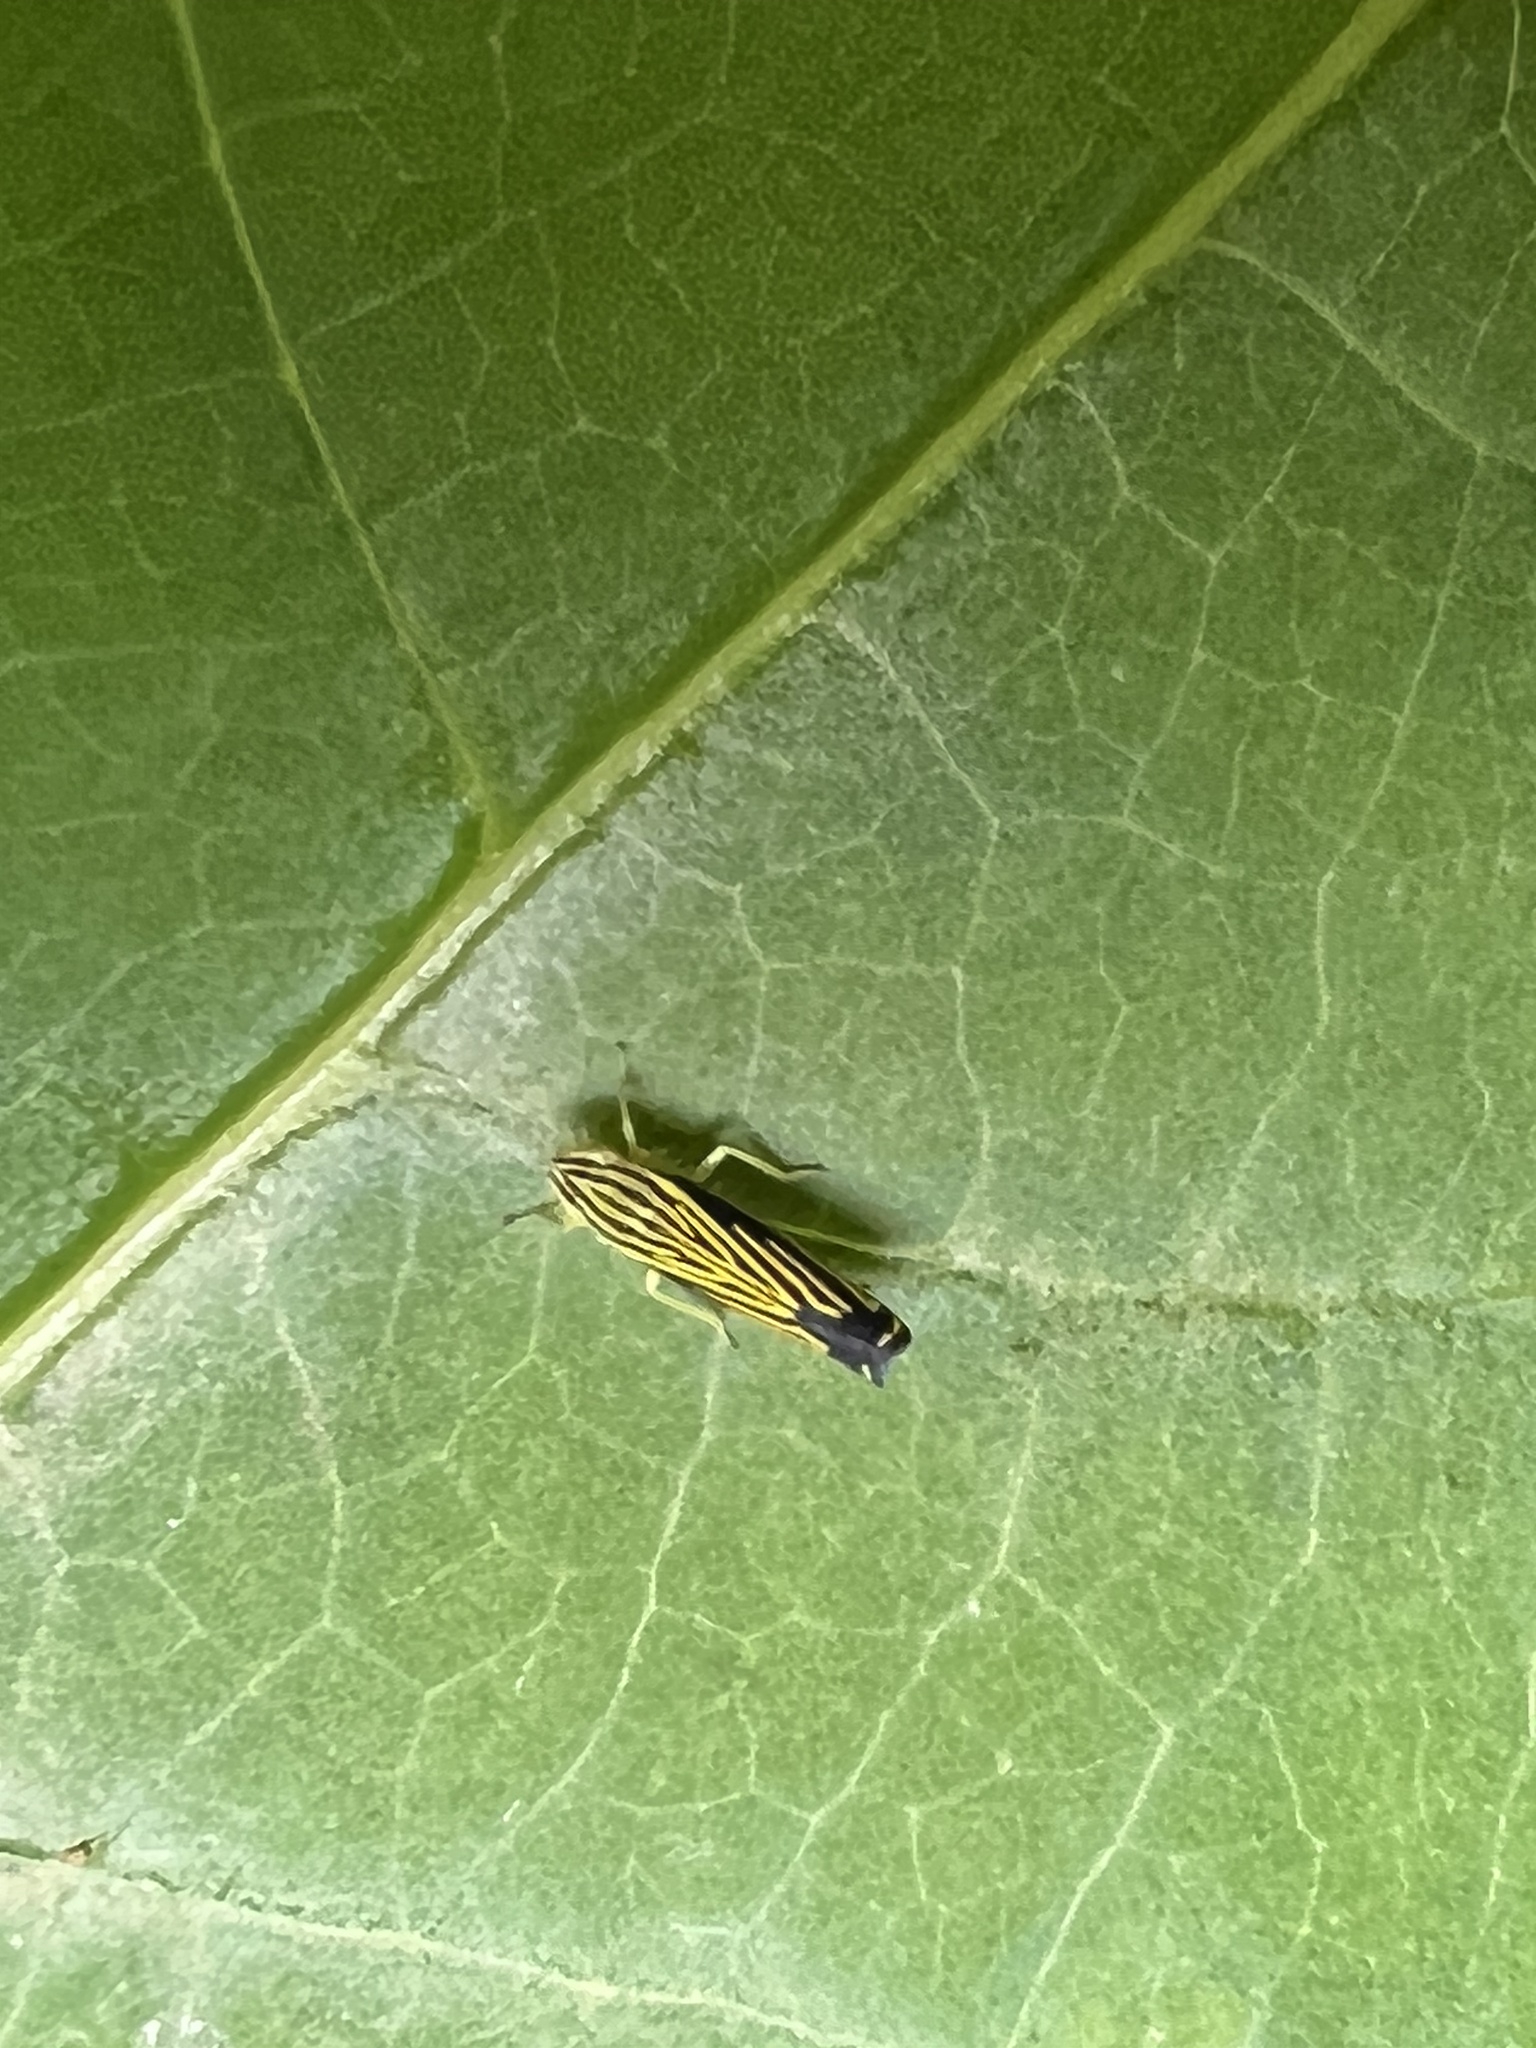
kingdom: Animalia
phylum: Arthropoda
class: Insecta
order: Hemiptera
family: Cicadellidae
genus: Sibovia
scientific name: Sibovia occatoria
